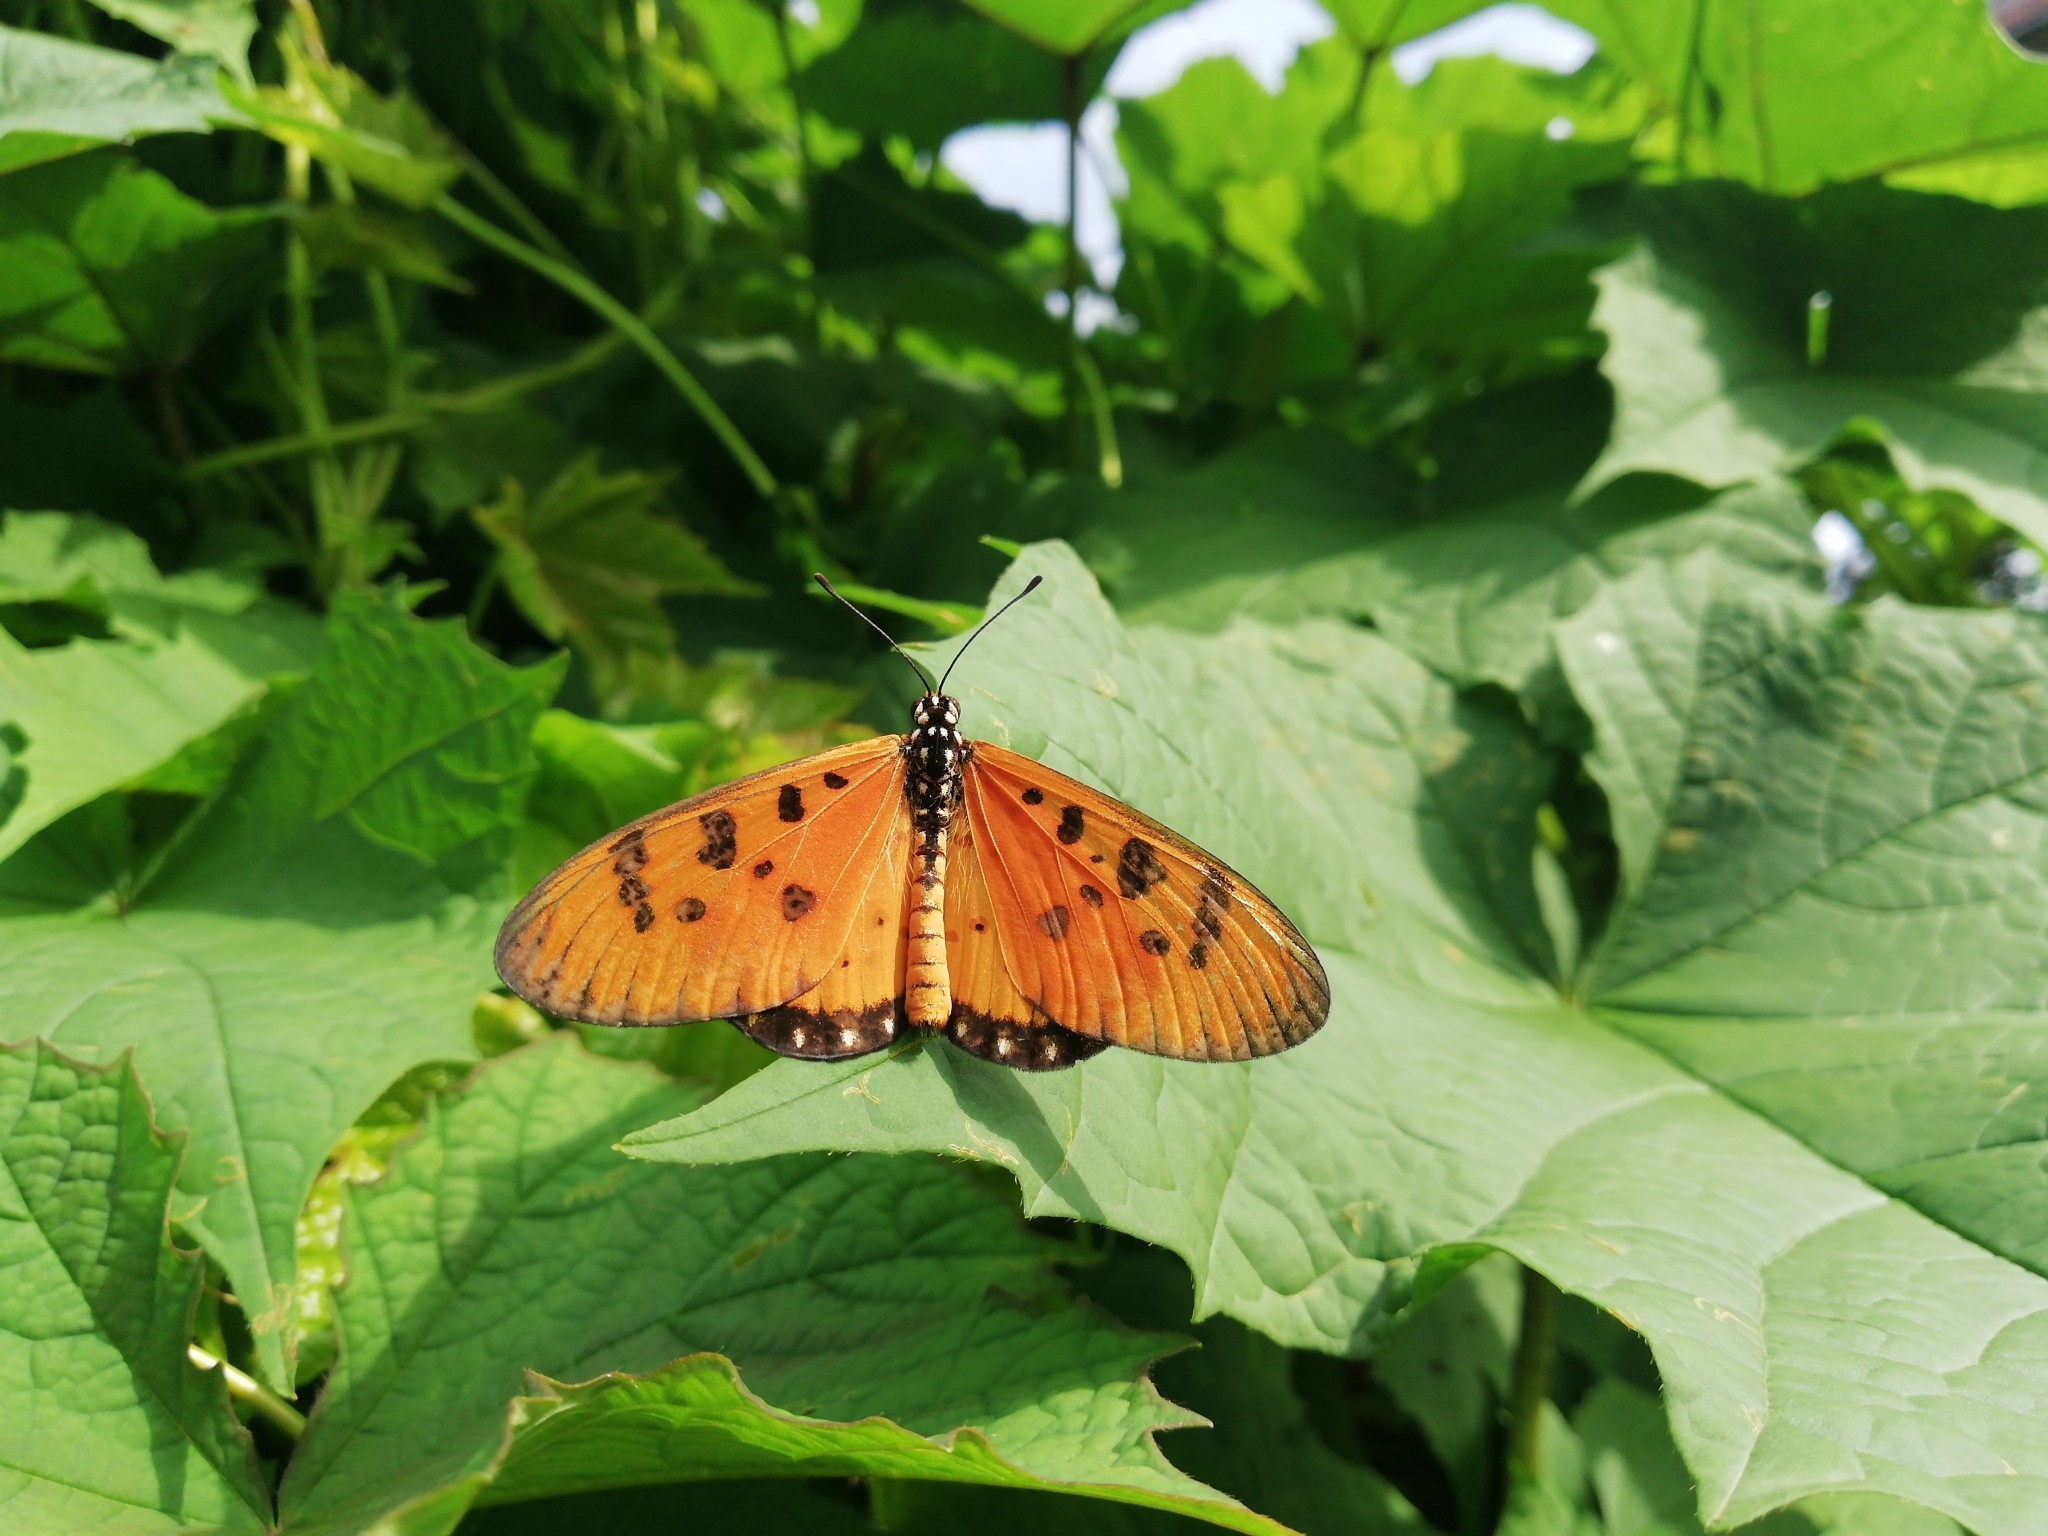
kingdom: Animalia
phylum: Arthropoda
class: Insecta
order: Lepidoptera
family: Nymphalidae
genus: Acraea
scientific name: Acraea terpsicore
